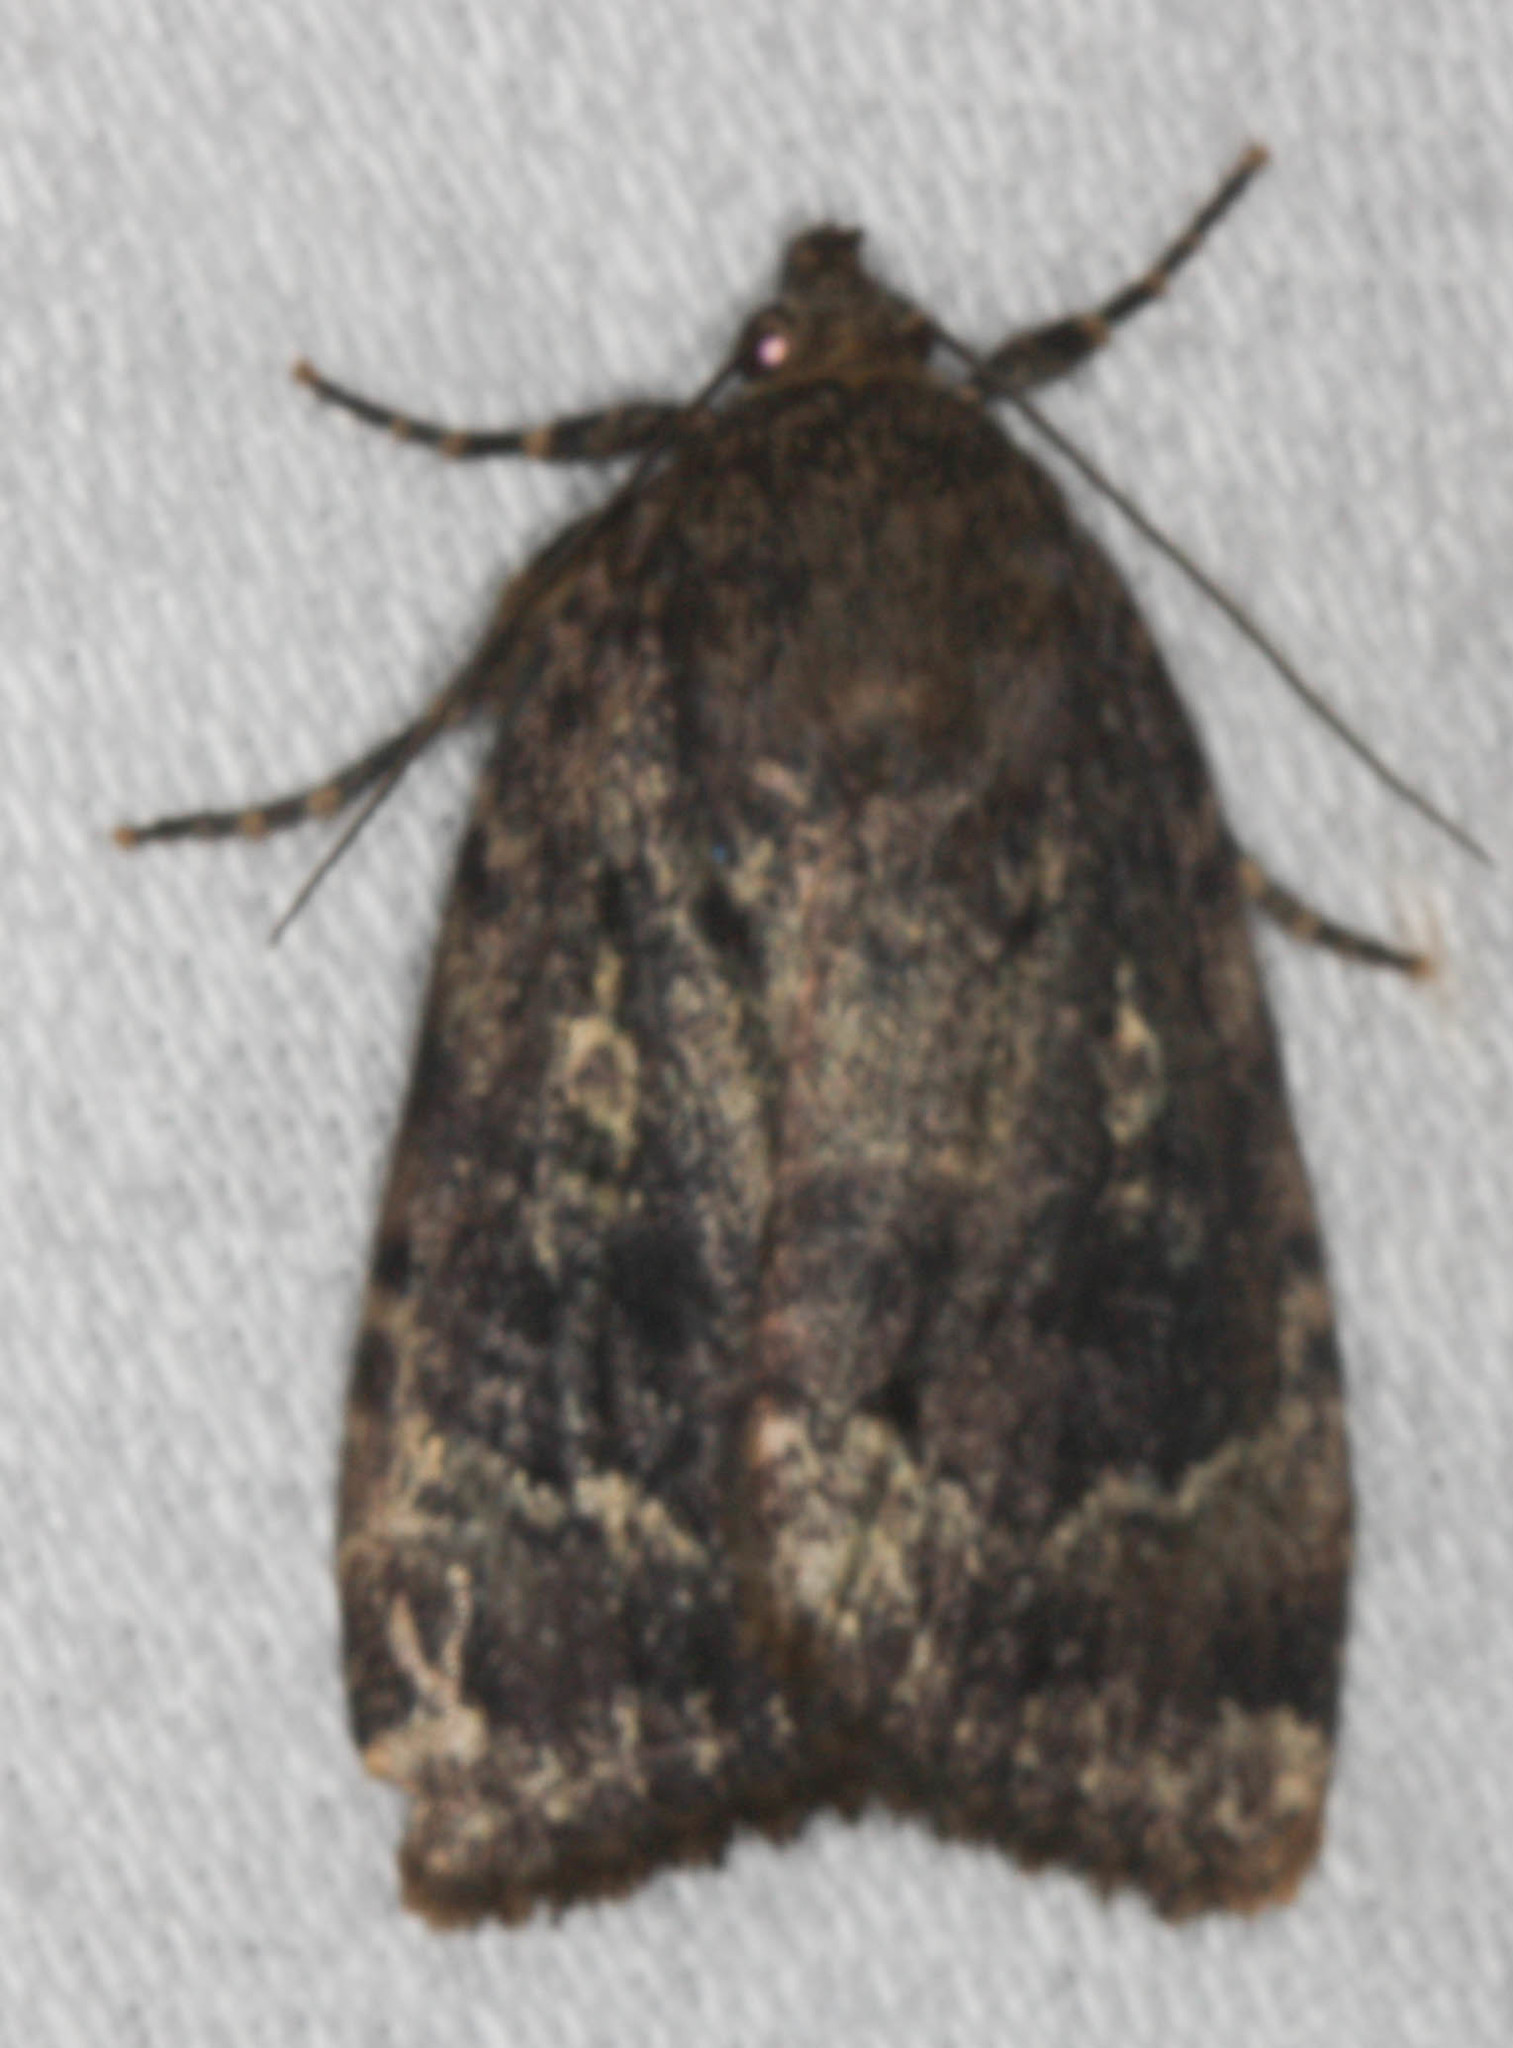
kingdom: Animalia
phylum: Arthropoda
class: Insecta
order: Lepidoptera
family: Noctuidae
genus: Amphipyra
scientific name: Amphipyra pyramidoides
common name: American copper underwing
